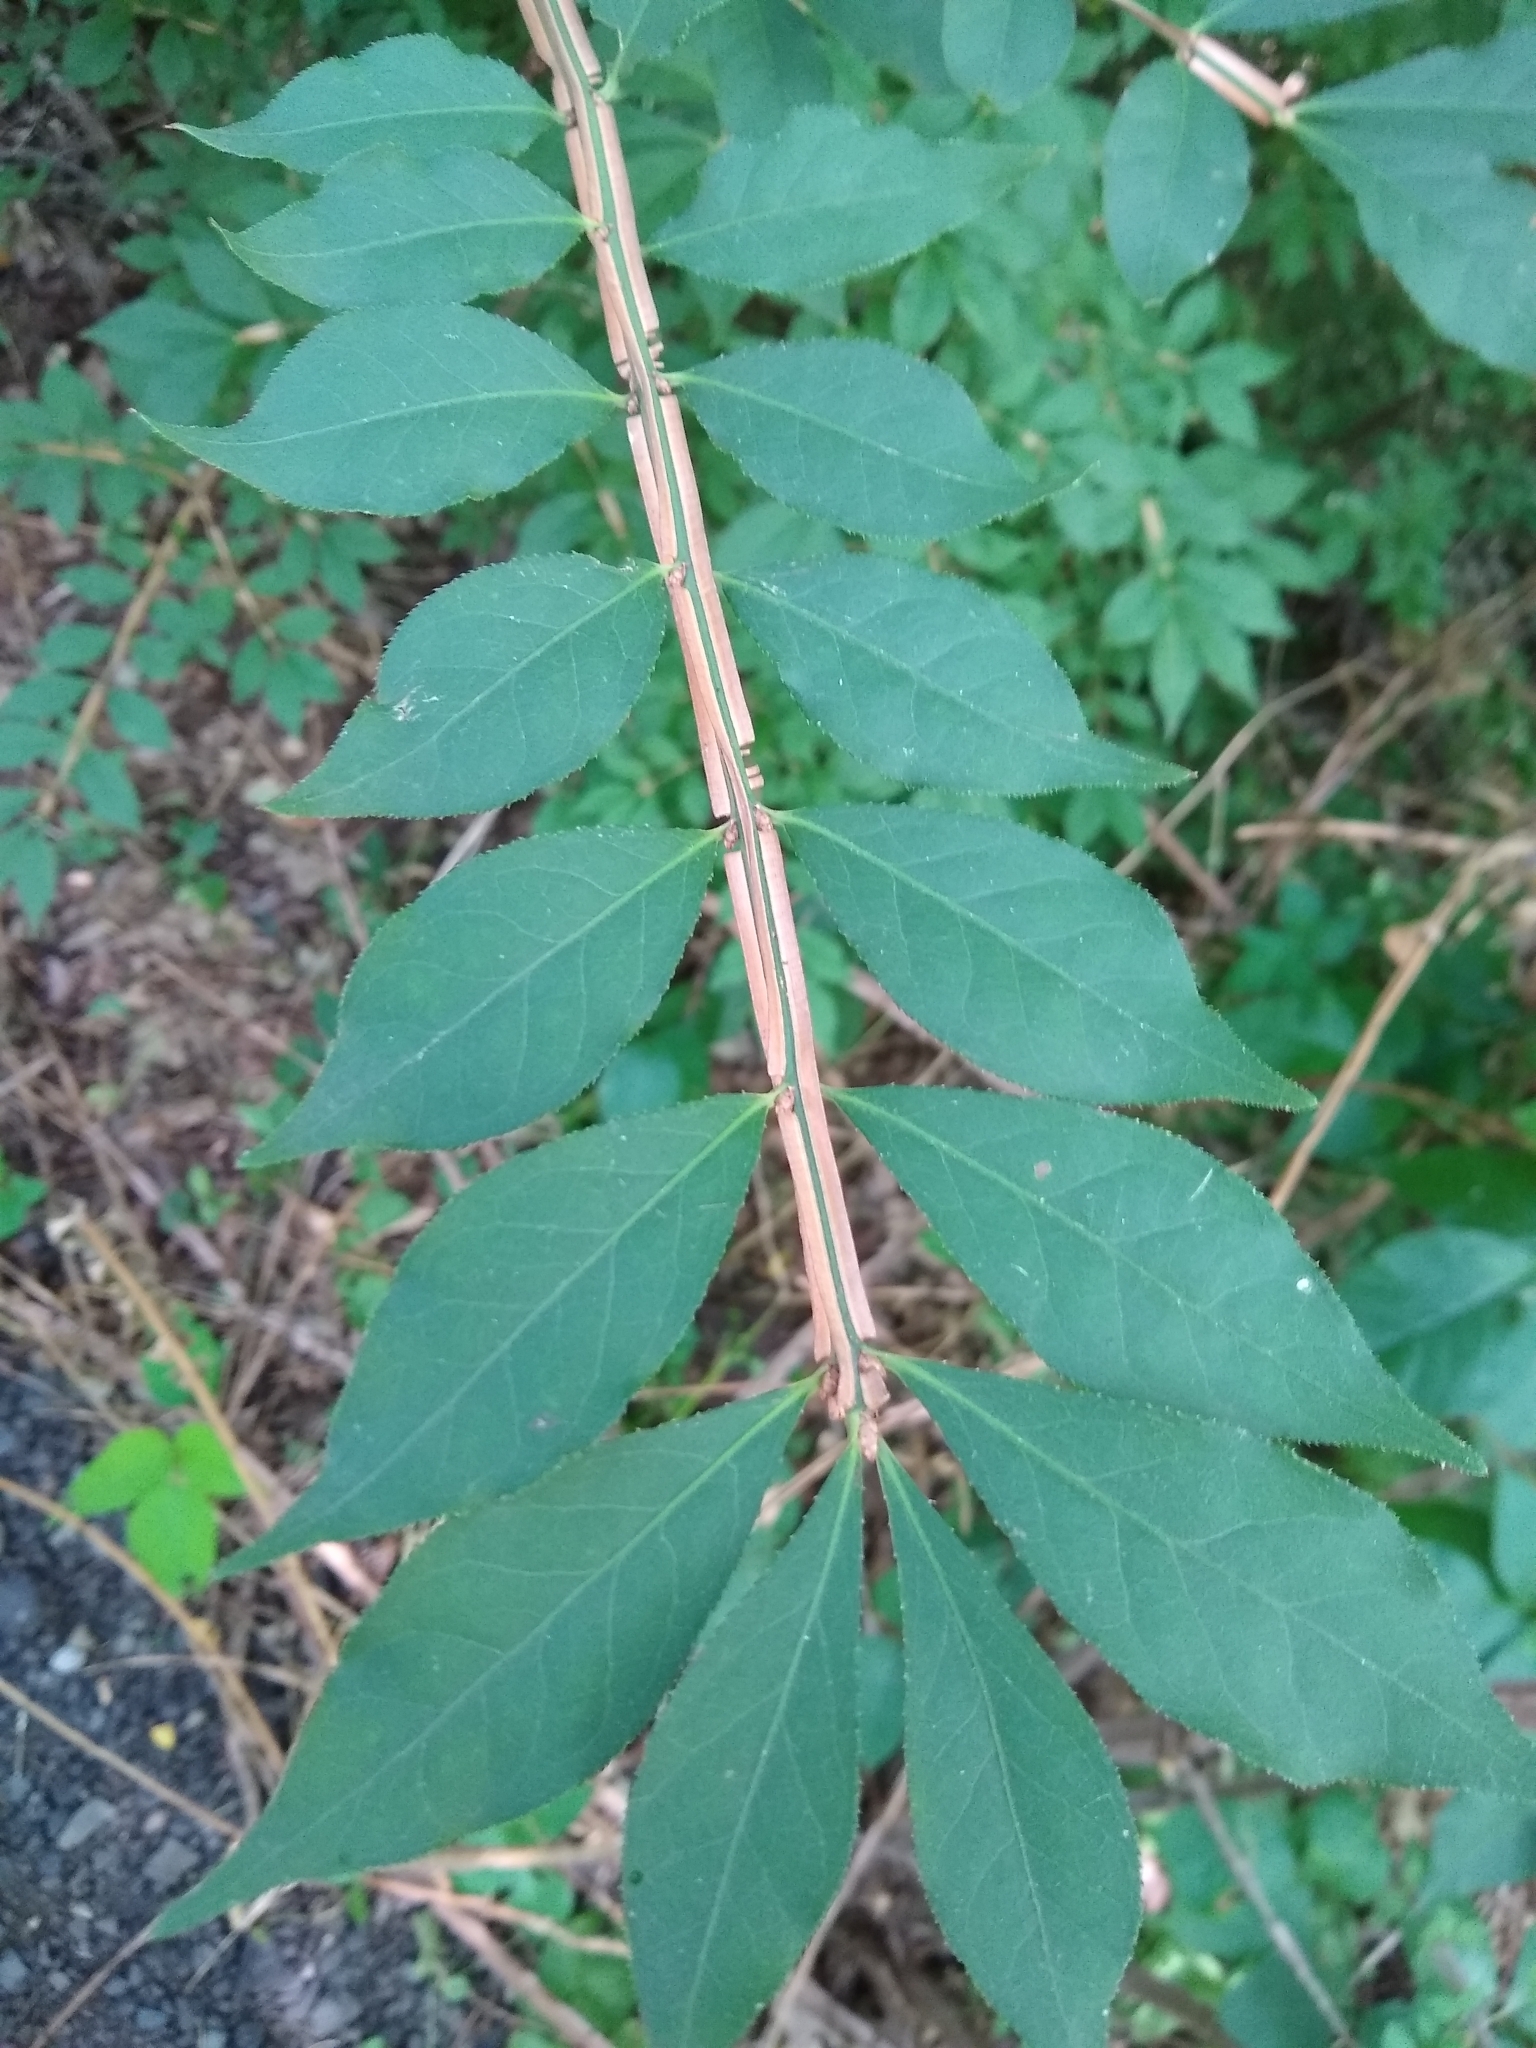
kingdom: Plantae
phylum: Tracheophyta
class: Magnoliopsida
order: Celastrales
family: Celastraceae
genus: Euonymus
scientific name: Euonymus alatus
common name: Winged euonymus
